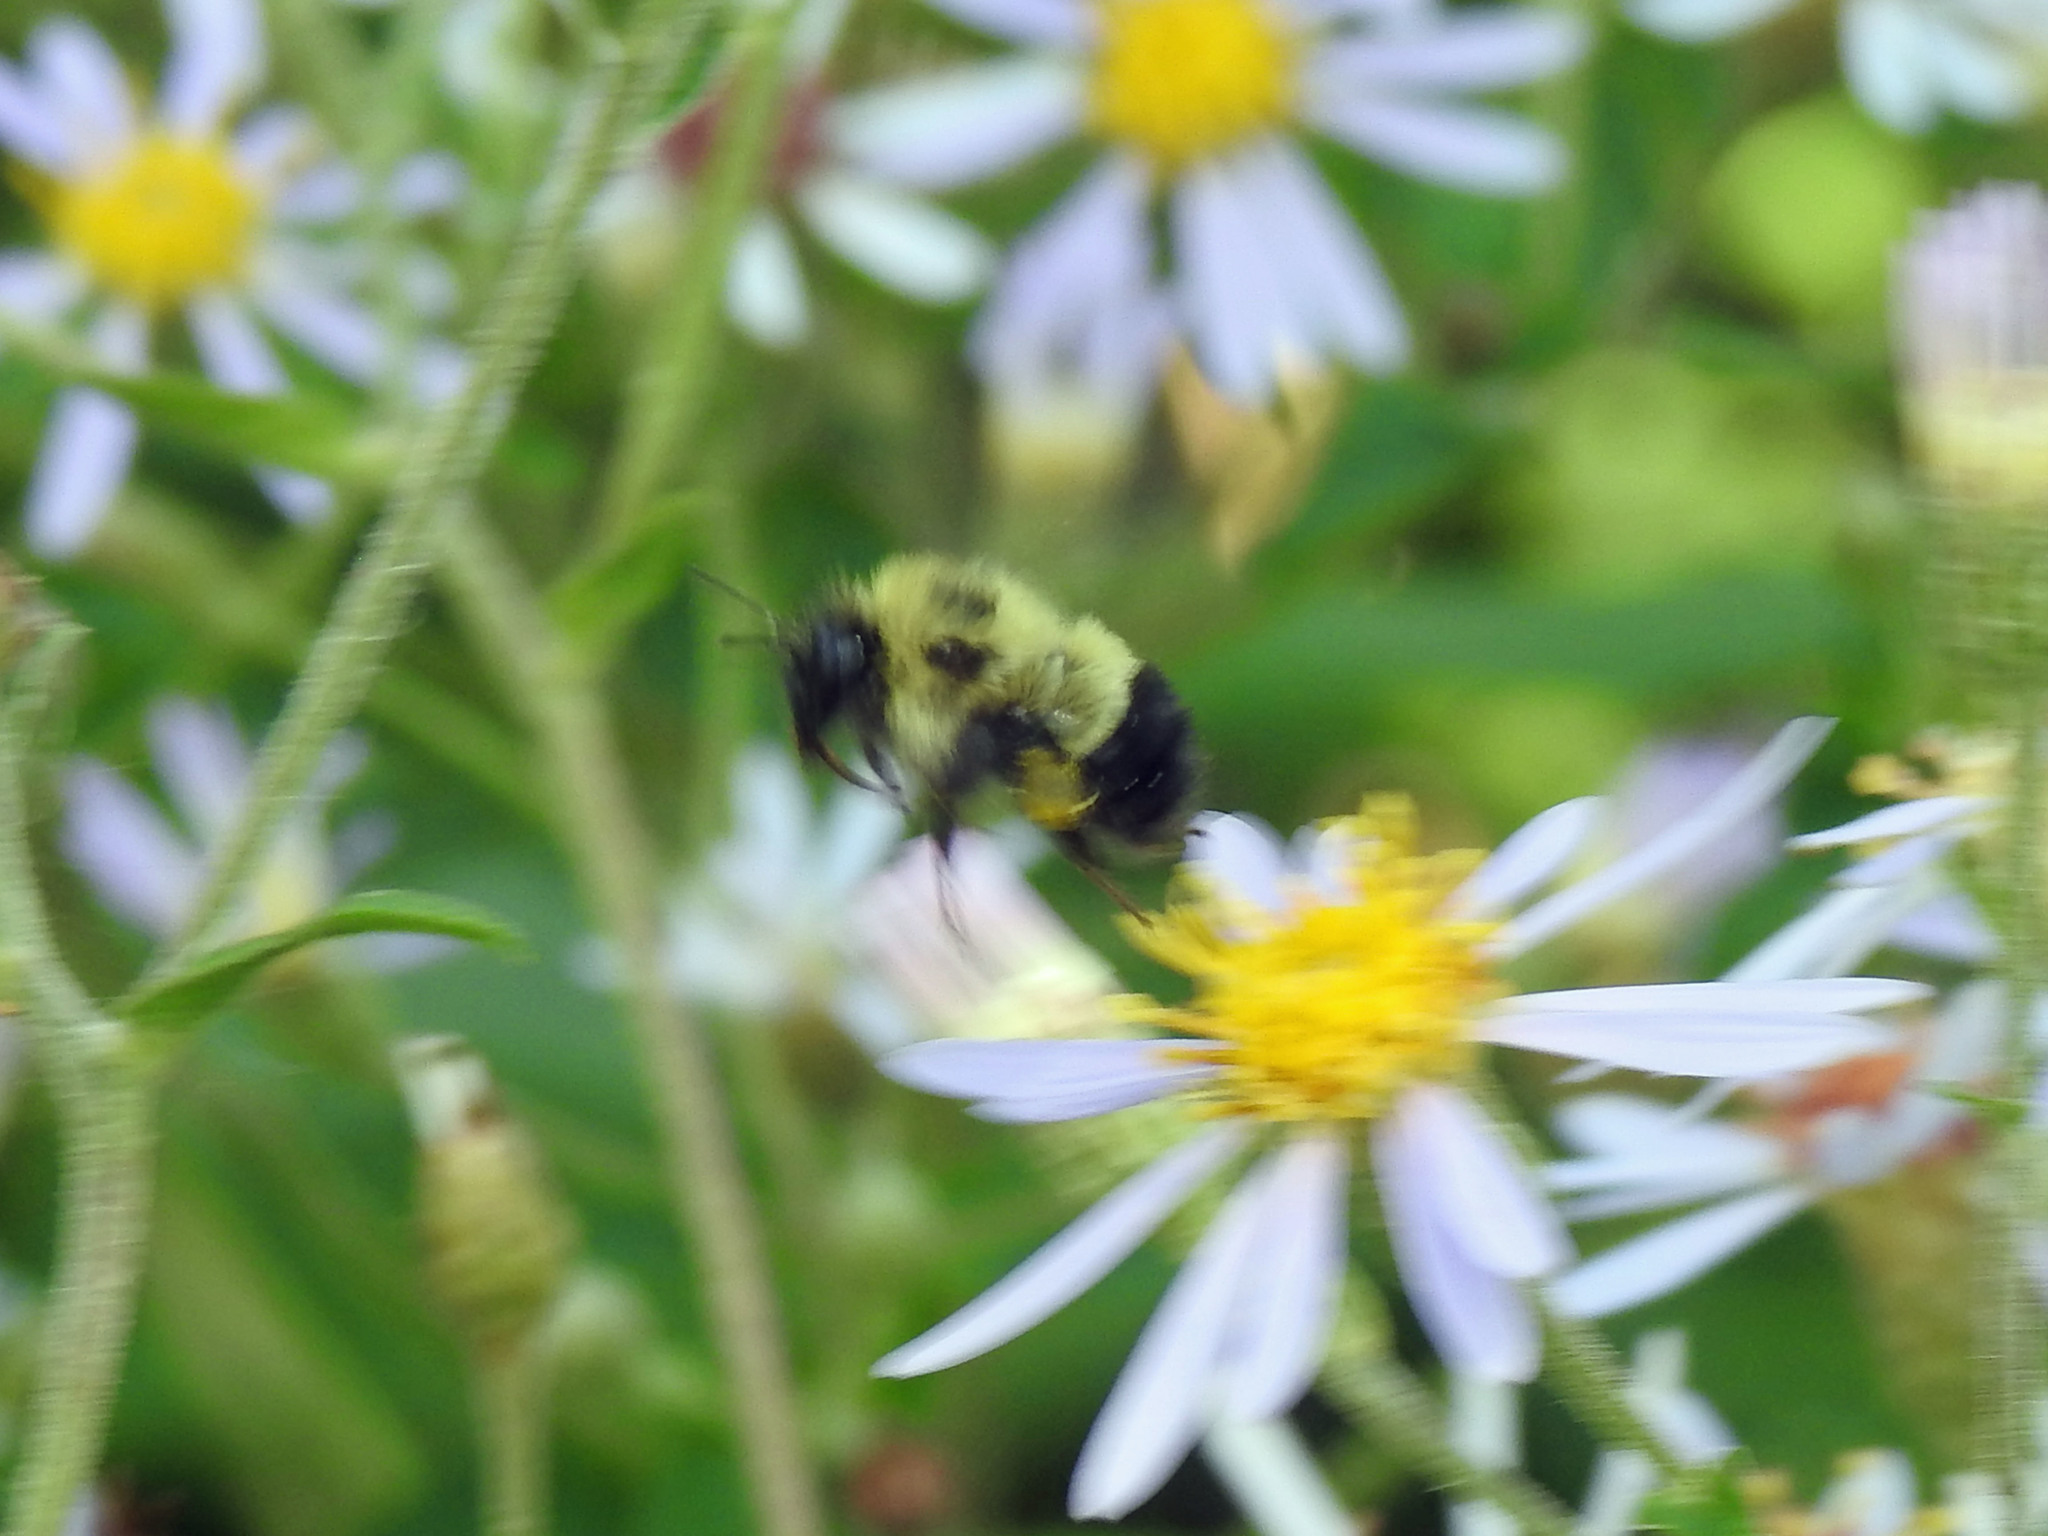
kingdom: Animalia
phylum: Arthropoda
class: Insecta
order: Hymenoptera
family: Apidae
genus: Bombus
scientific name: Bombus vagans
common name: Half-black bumble bee
